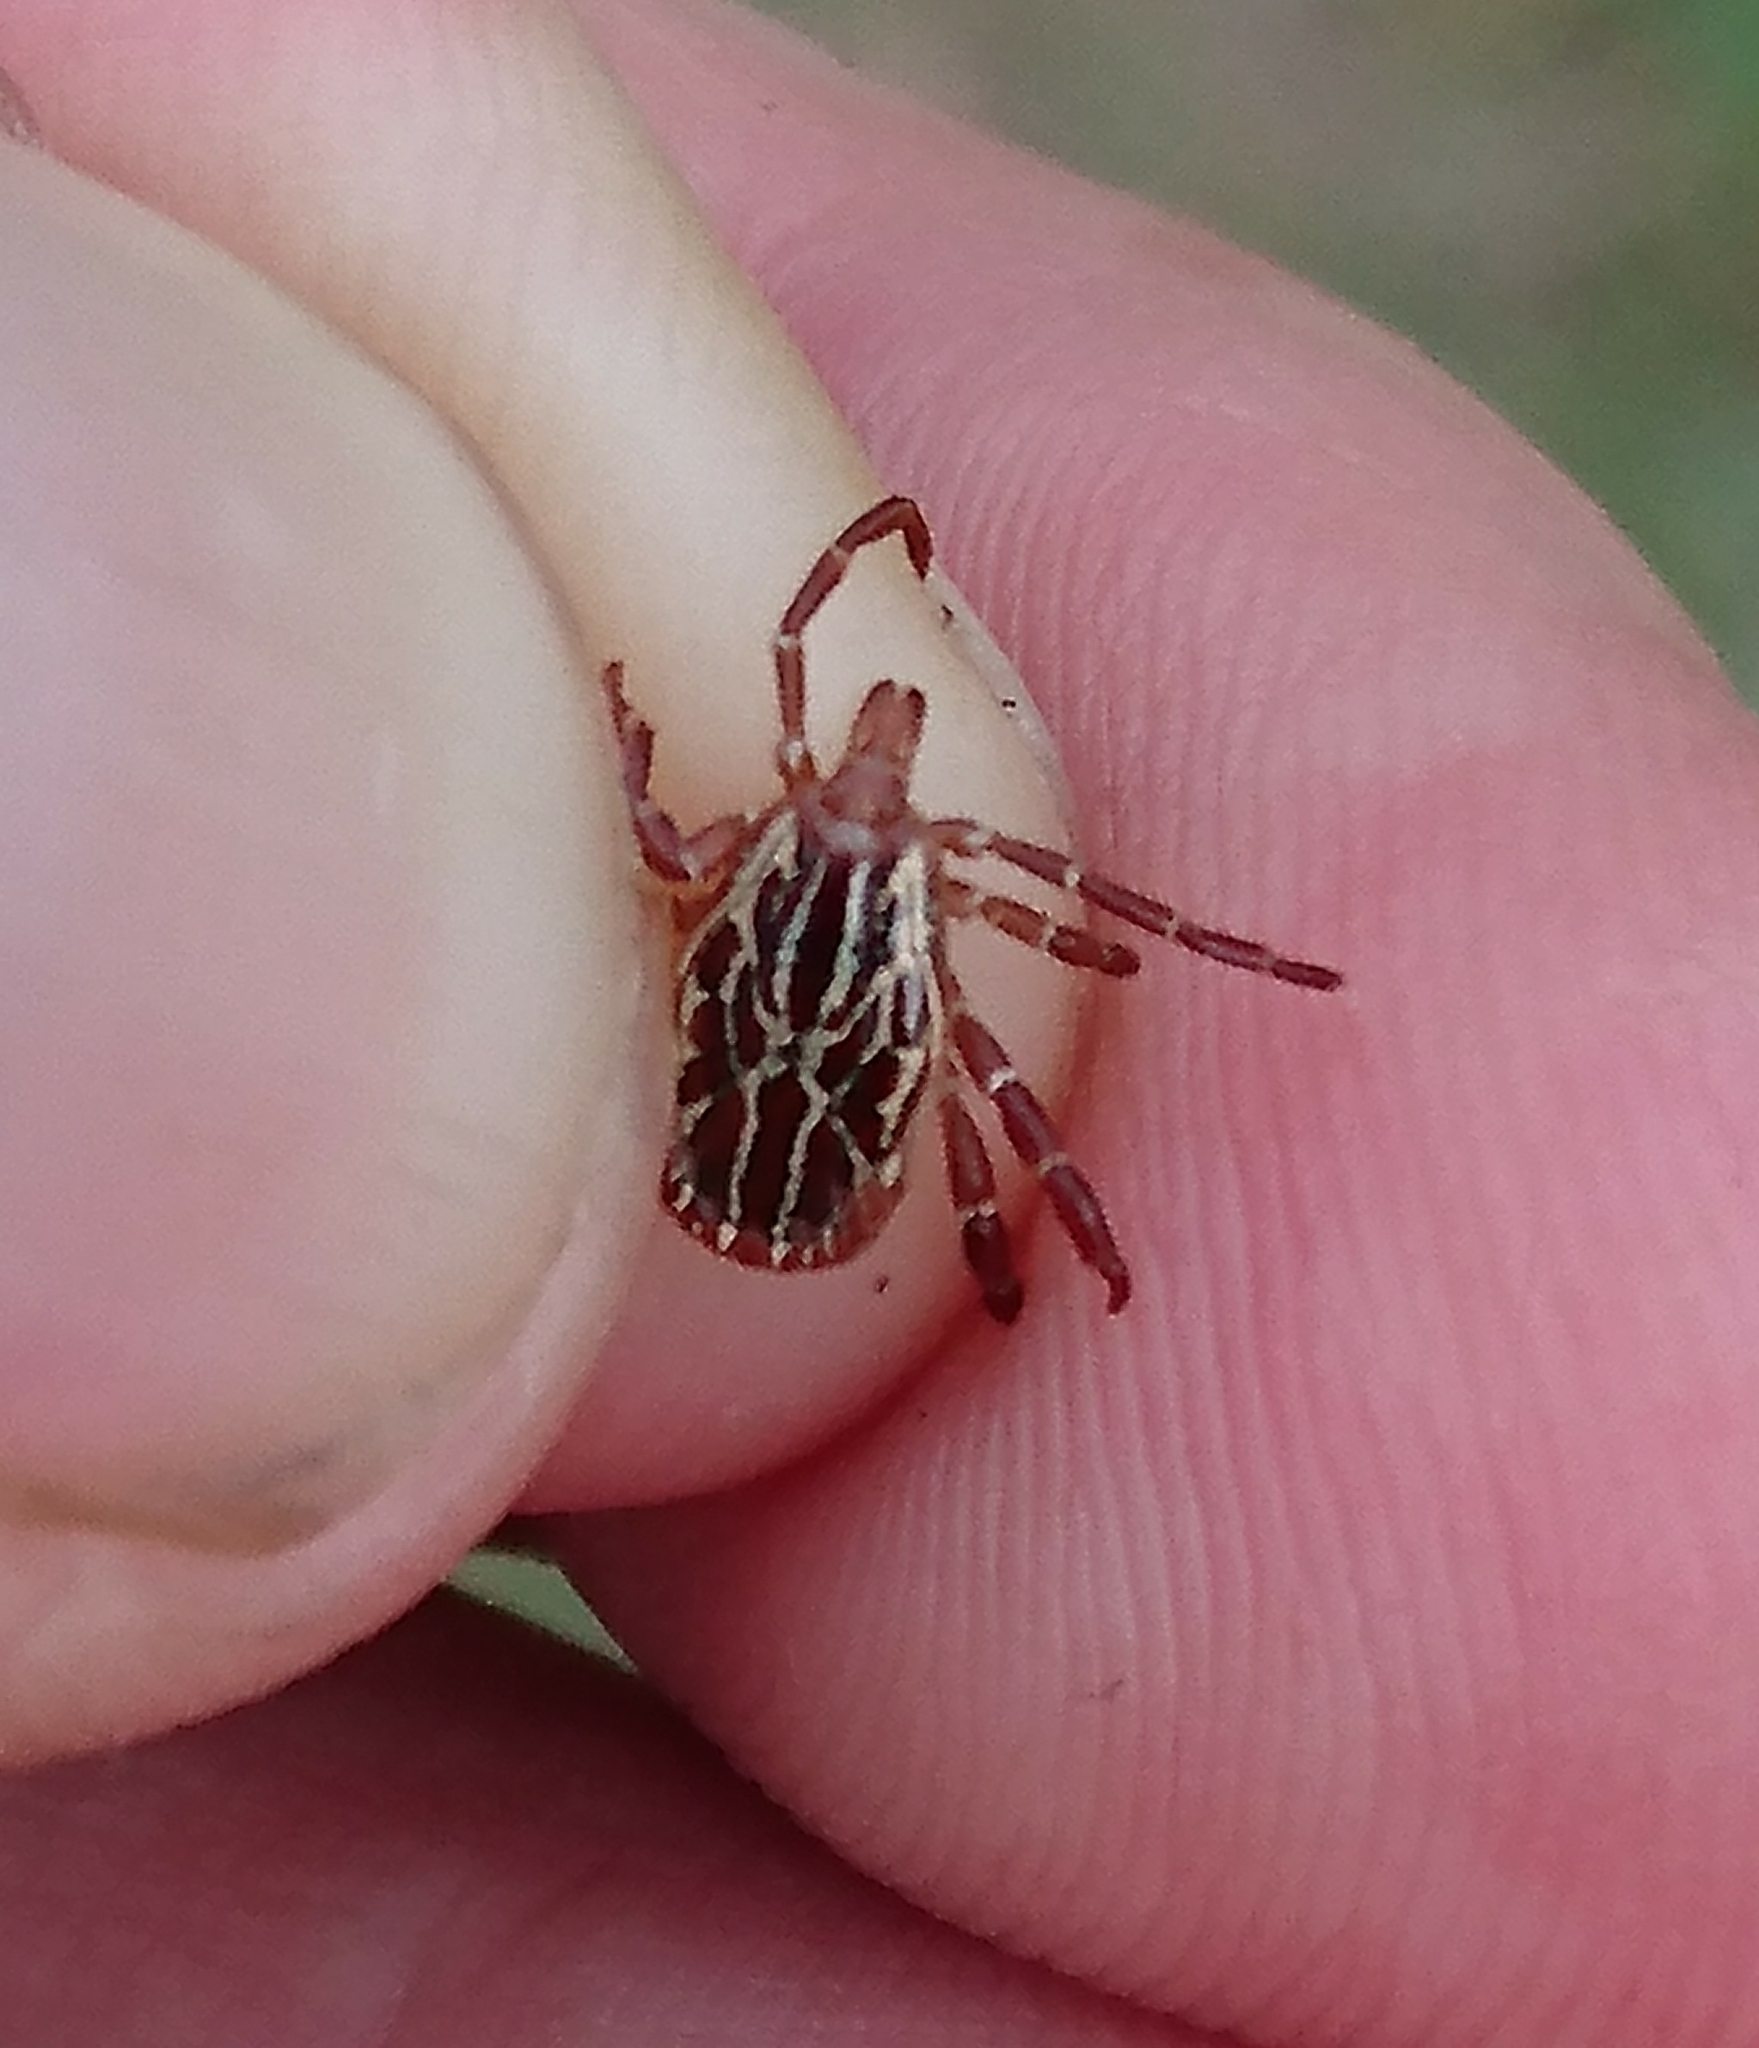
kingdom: Animalia
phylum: Arthropoda
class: Arachnida
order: Ixodida
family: Ixodidae
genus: Amblyomma
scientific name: Amblyomma maculatum
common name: Gulf coast tick
